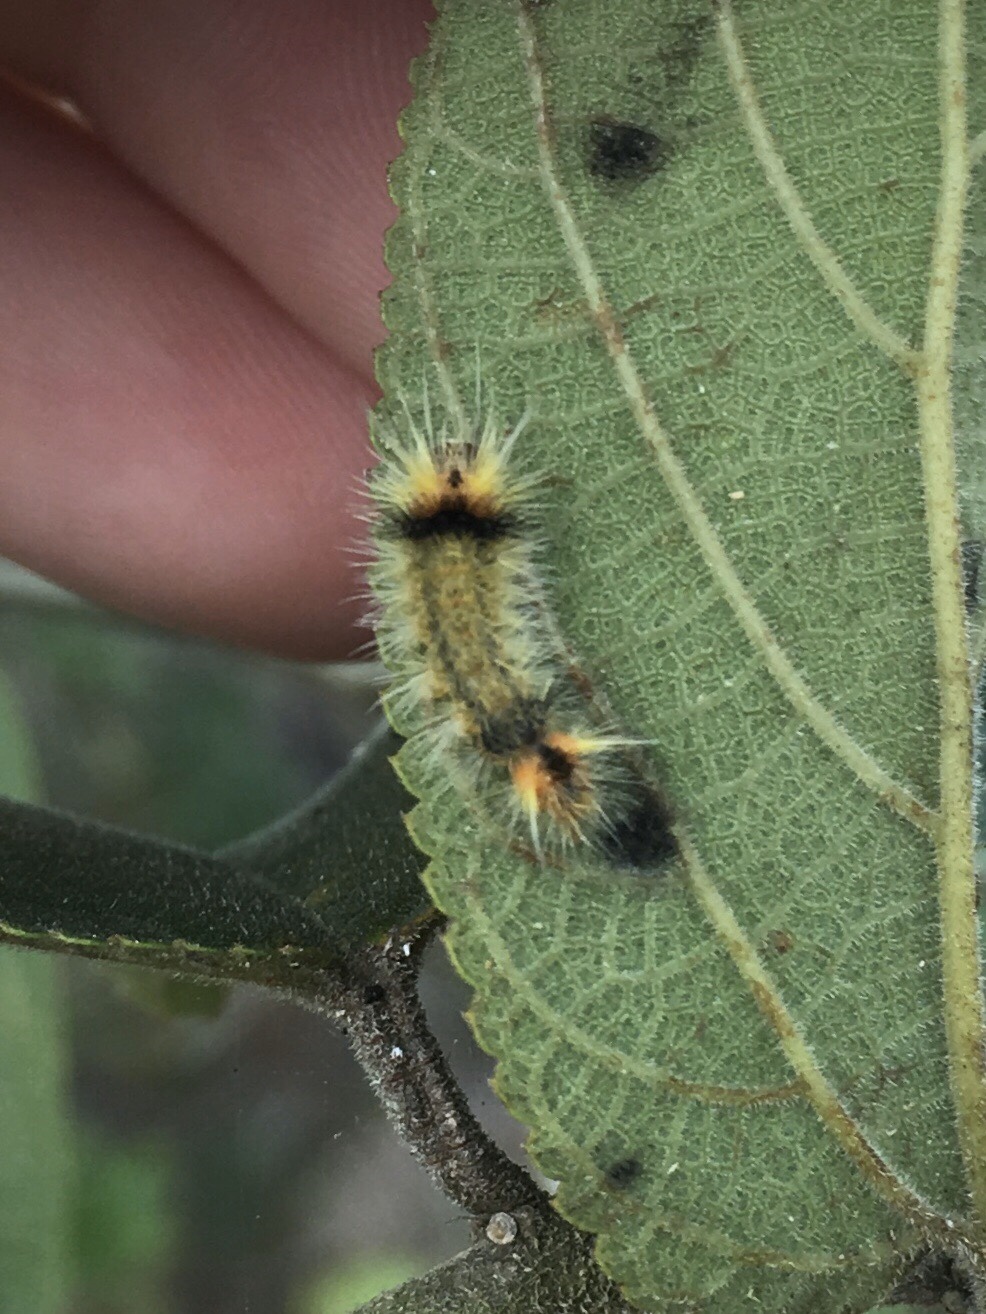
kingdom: Animalia
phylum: Arthropoda
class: Insecta
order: Lepidoptera
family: Erebidae
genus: Halysidota
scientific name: Halysidota cinctipes
